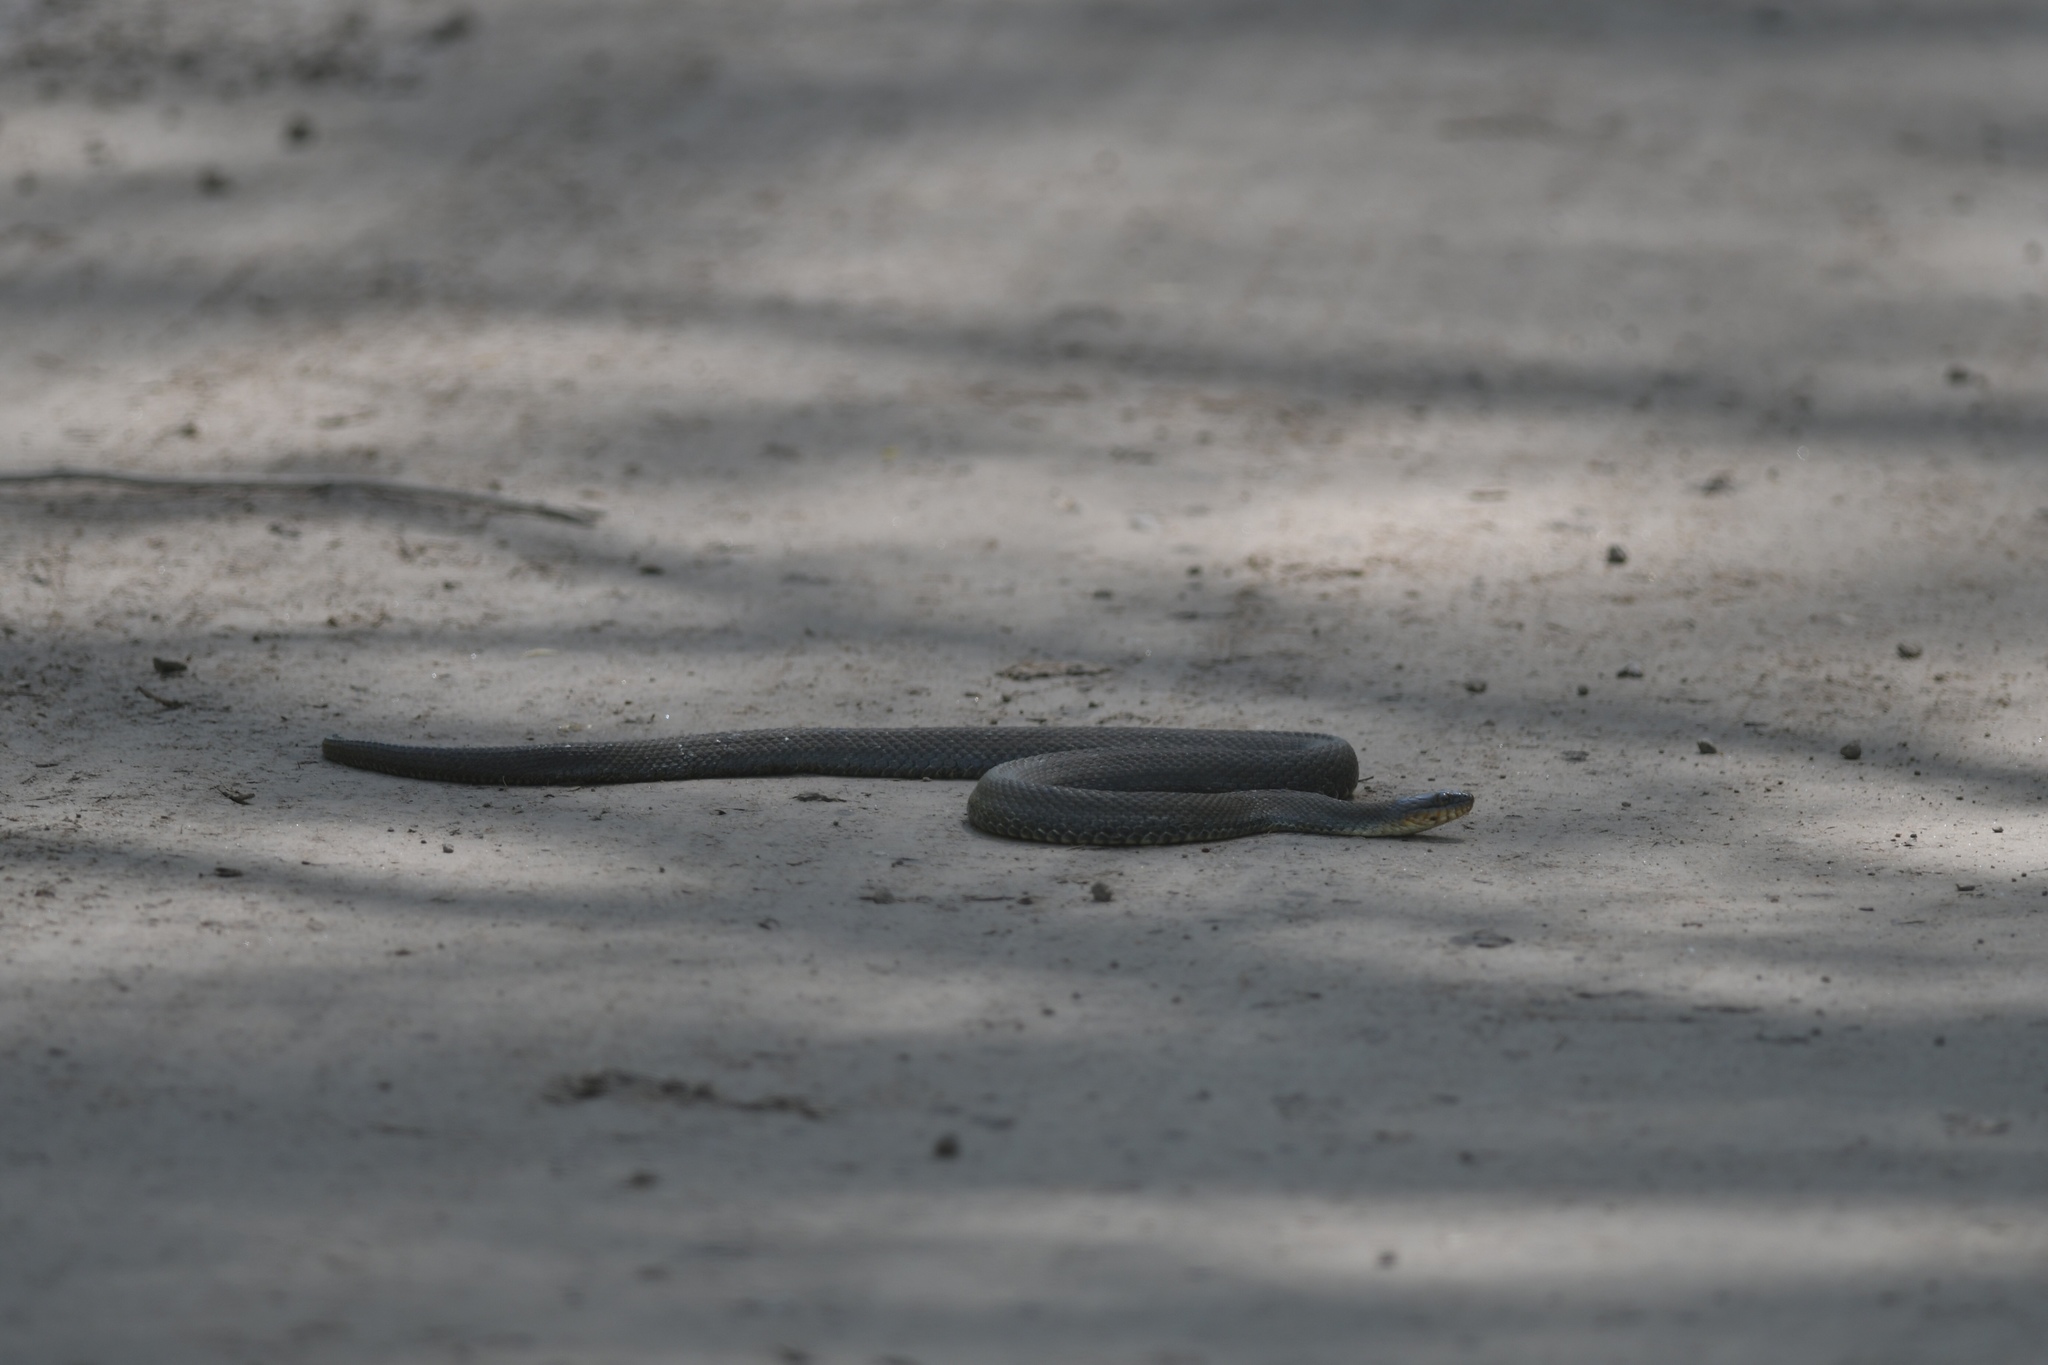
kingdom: Animalia
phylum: Chordata
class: Squamata
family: Colubridae
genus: Nerodia
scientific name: Nerodia sipedon
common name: Northern water snake
